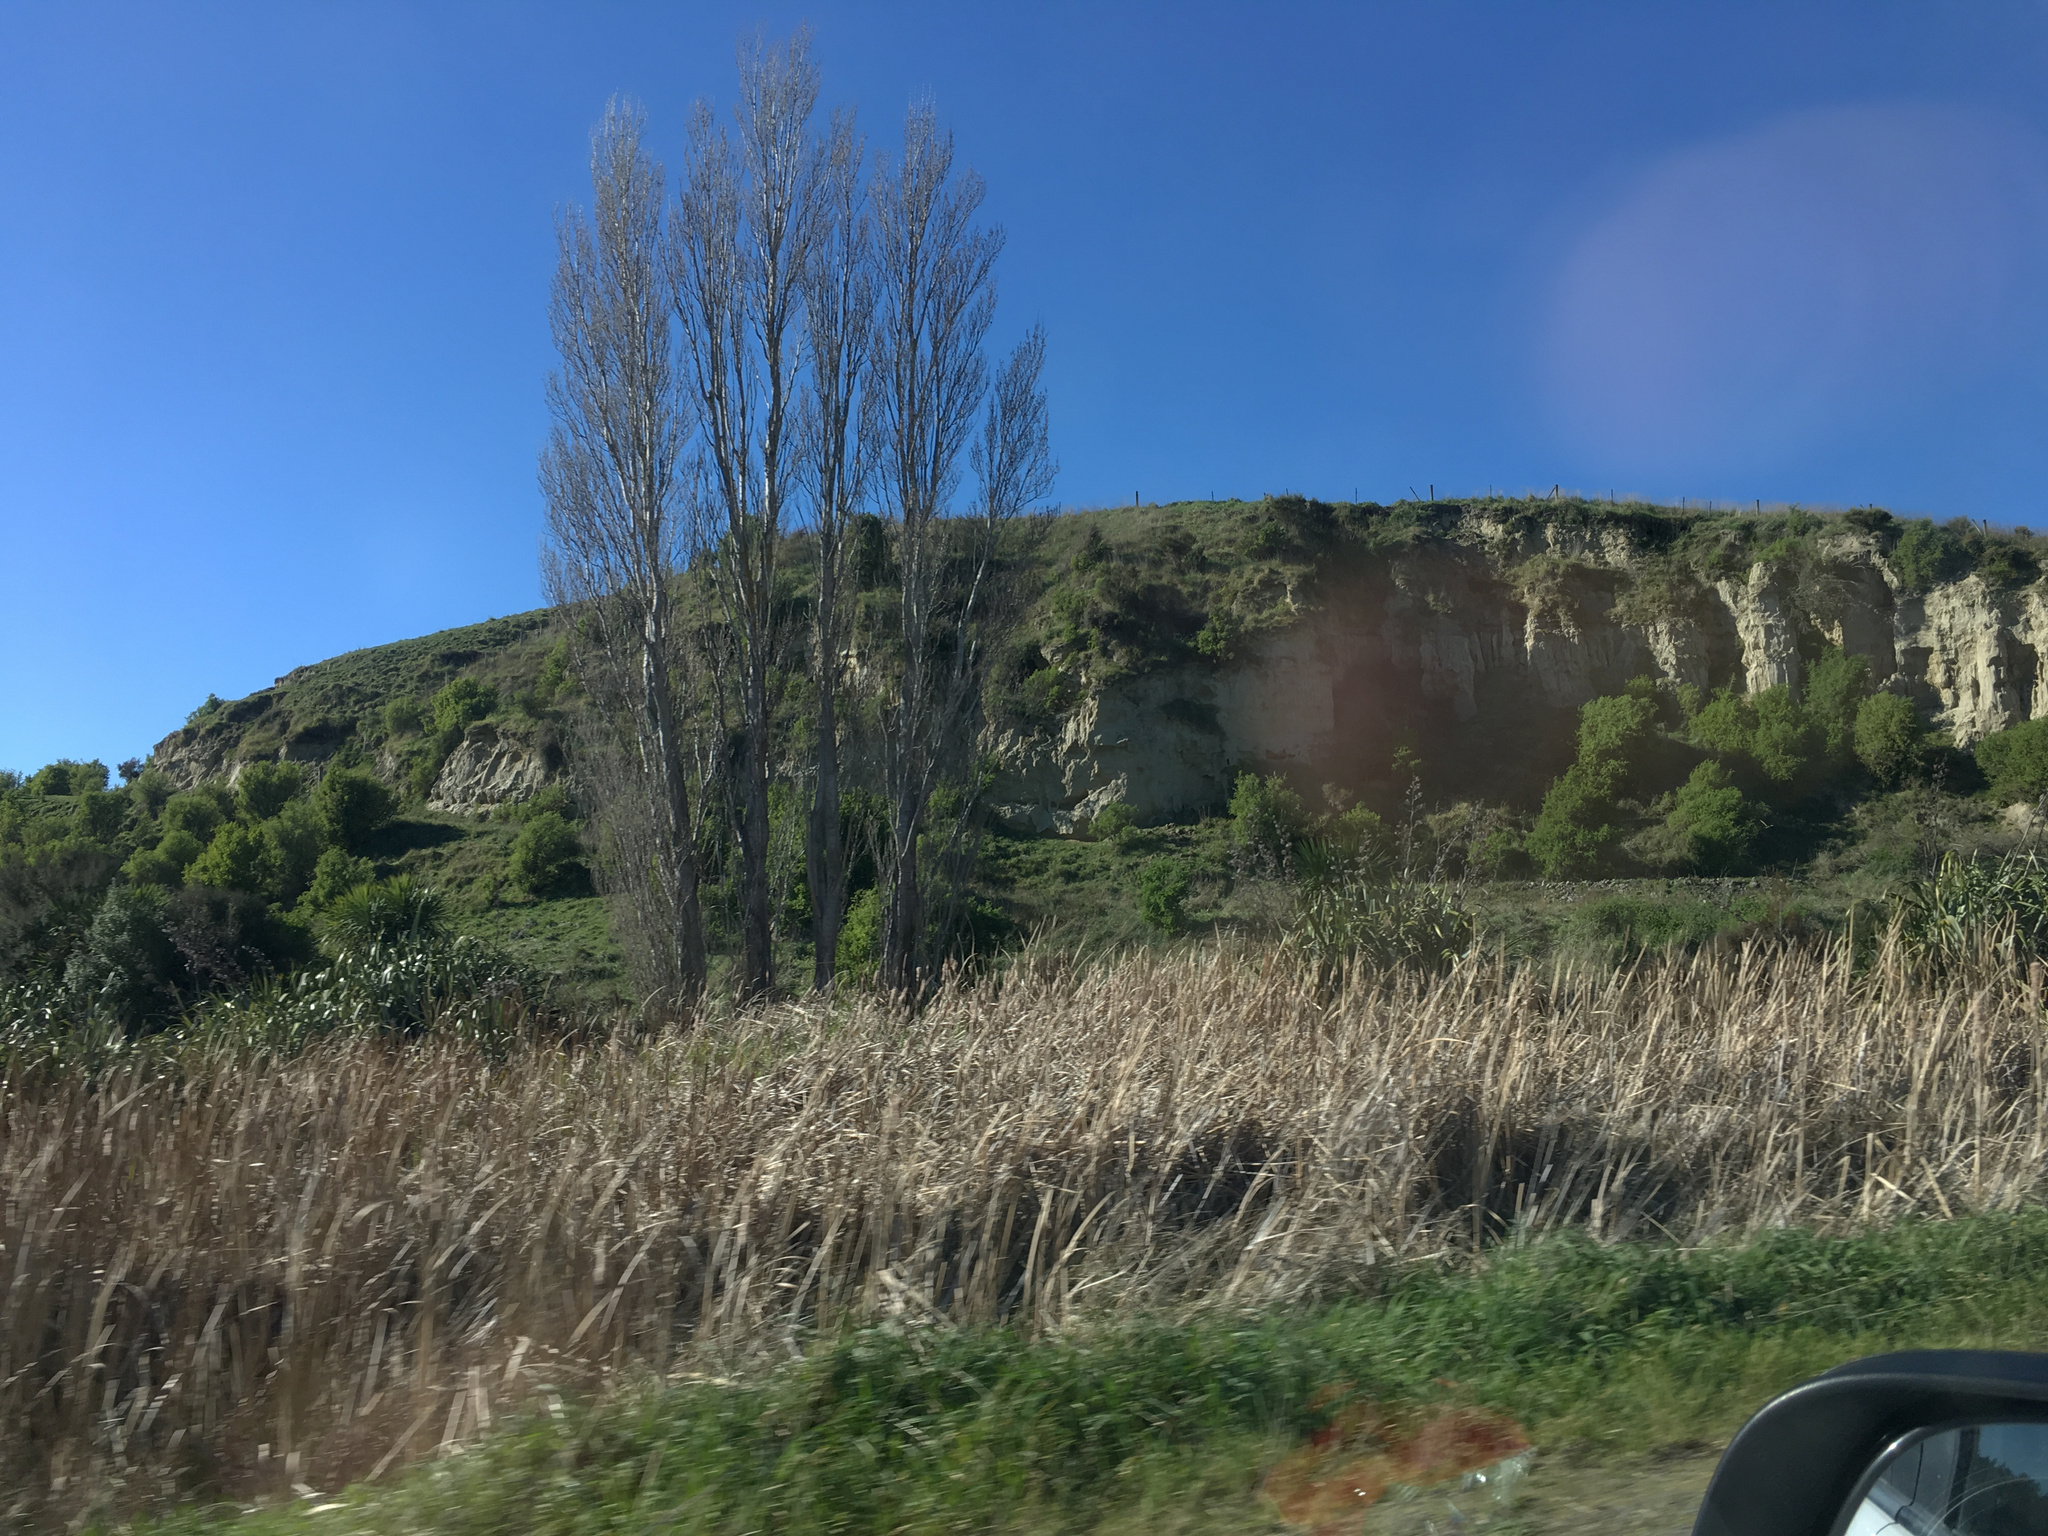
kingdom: Plantae
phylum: Tracheophyta
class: Magnoliopsida
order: Solanales
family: Solanaceae
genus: Lycium
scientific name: Lycium ferocissimum
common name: African boxthorn
